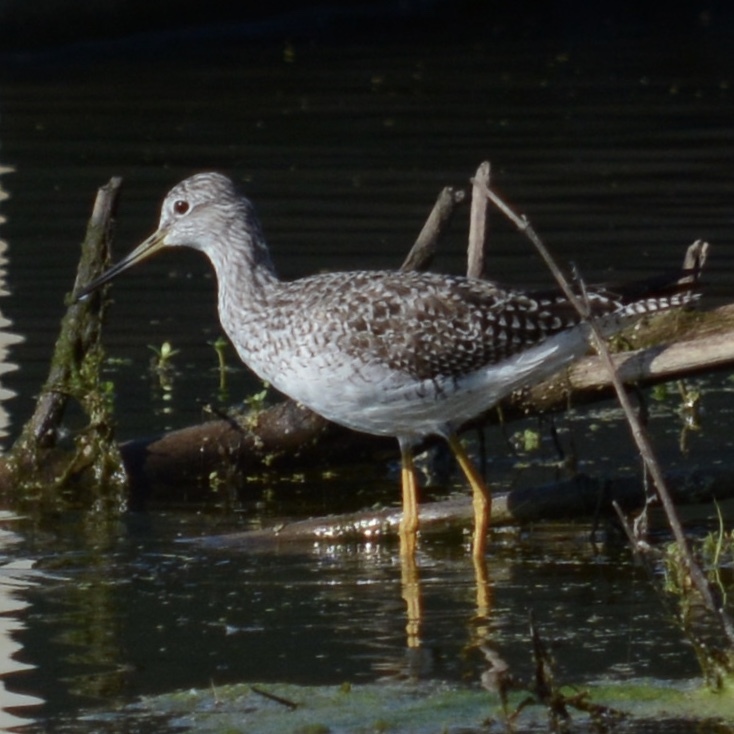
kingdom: Animalia
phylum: Chordata
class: Aves
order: Charadriiformes
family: Scolopacidae
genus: Tringa
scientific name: Tringa melanoleuca
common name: Greater yellowlegs
